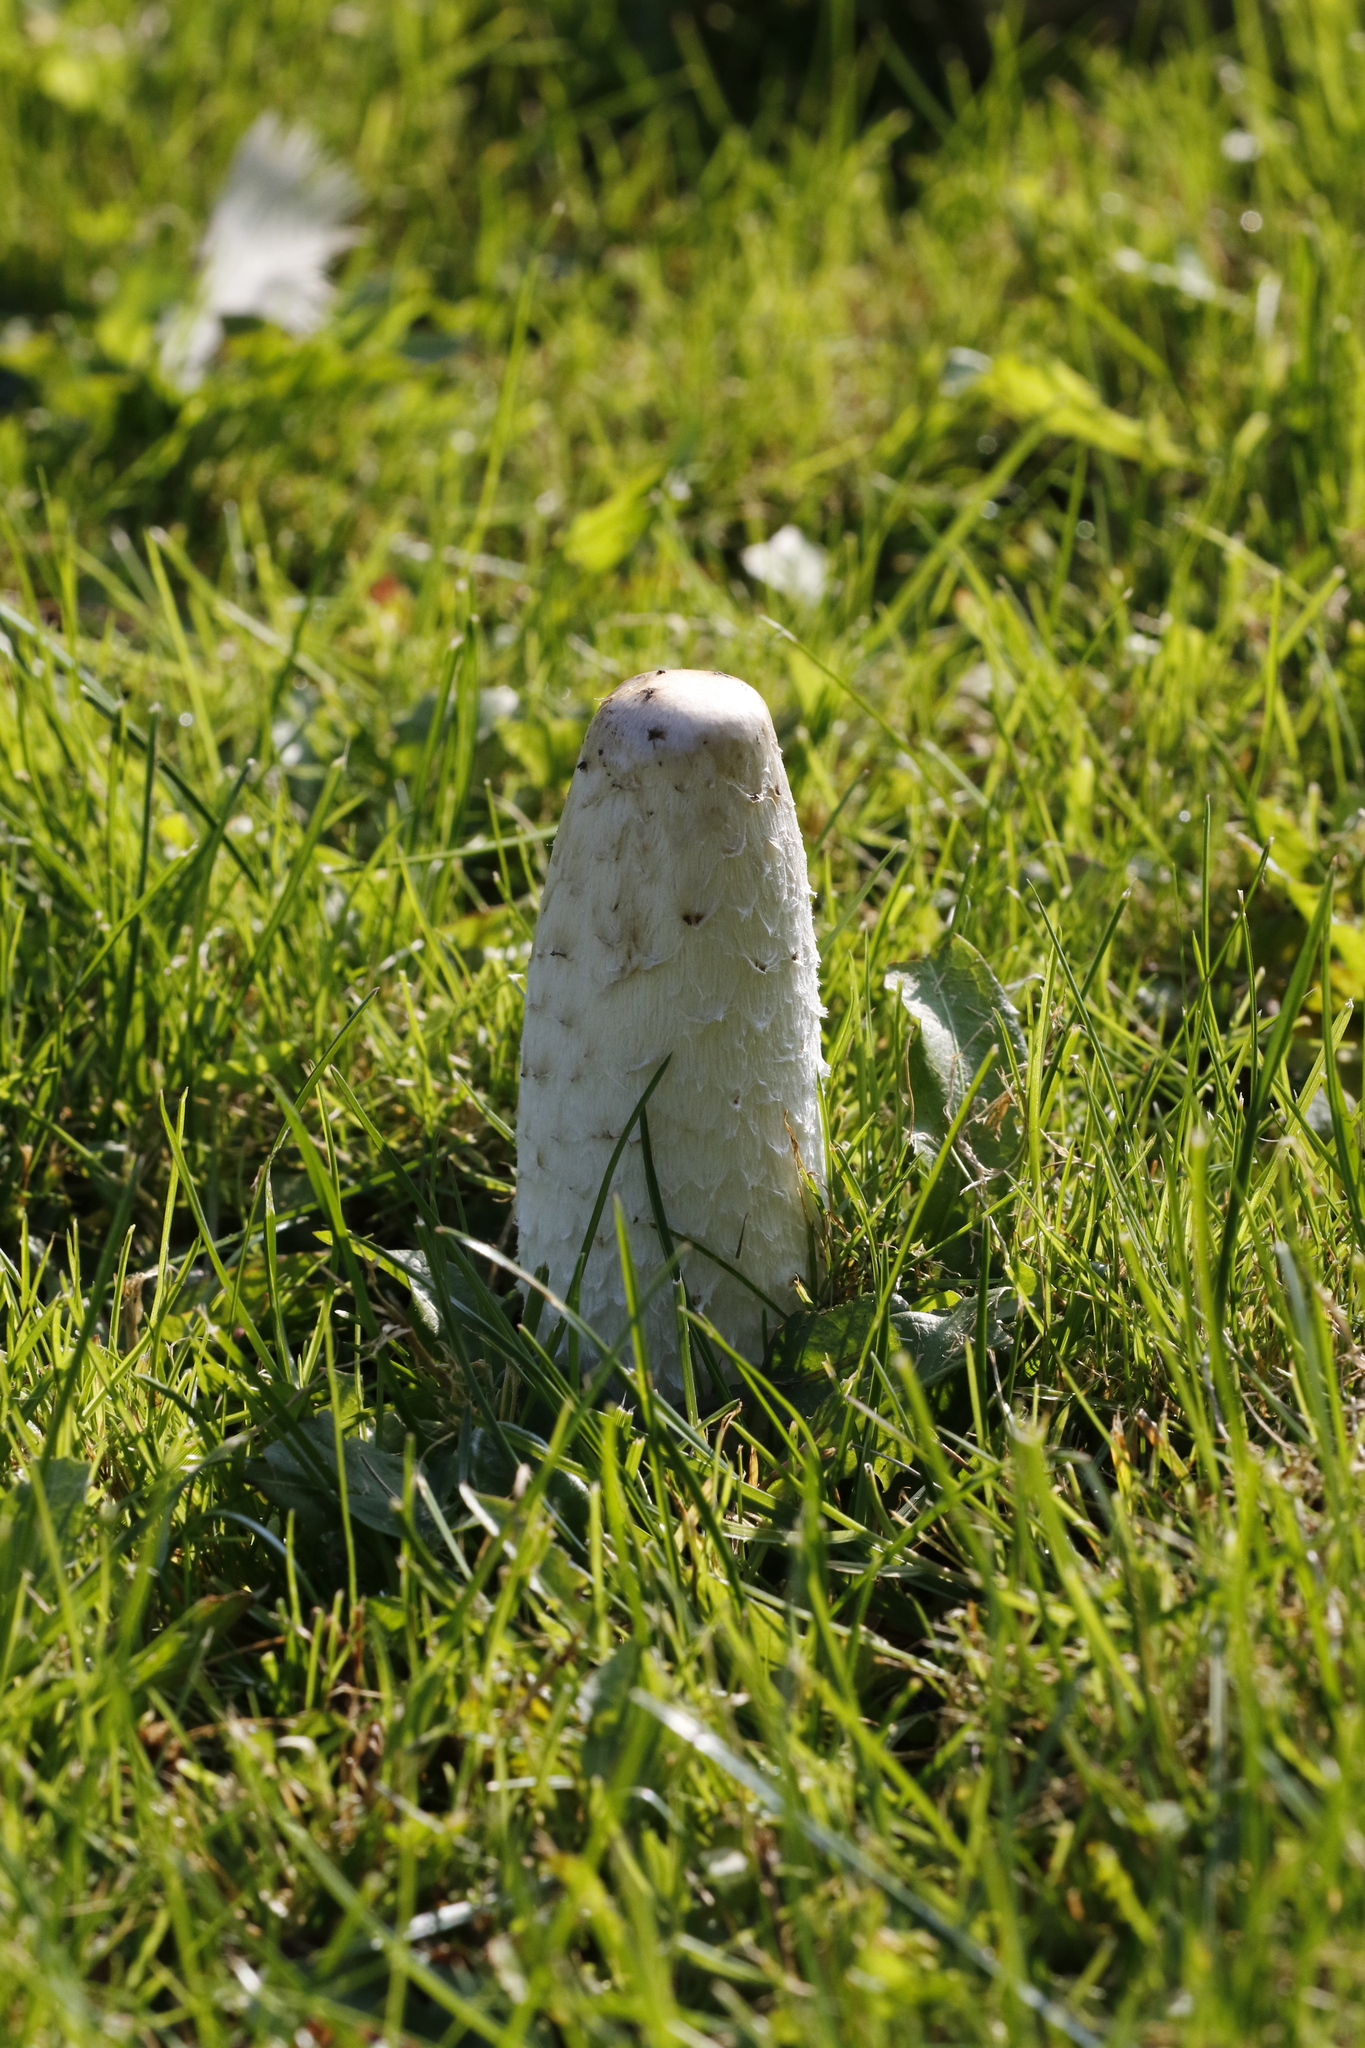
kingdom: Fungi
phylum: Basidiomycota
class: Agaricomycetes
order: Agaricales
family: Agaricaceae
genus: Coprinus
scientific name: Coprinus comatus
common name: Lawyer's wig
